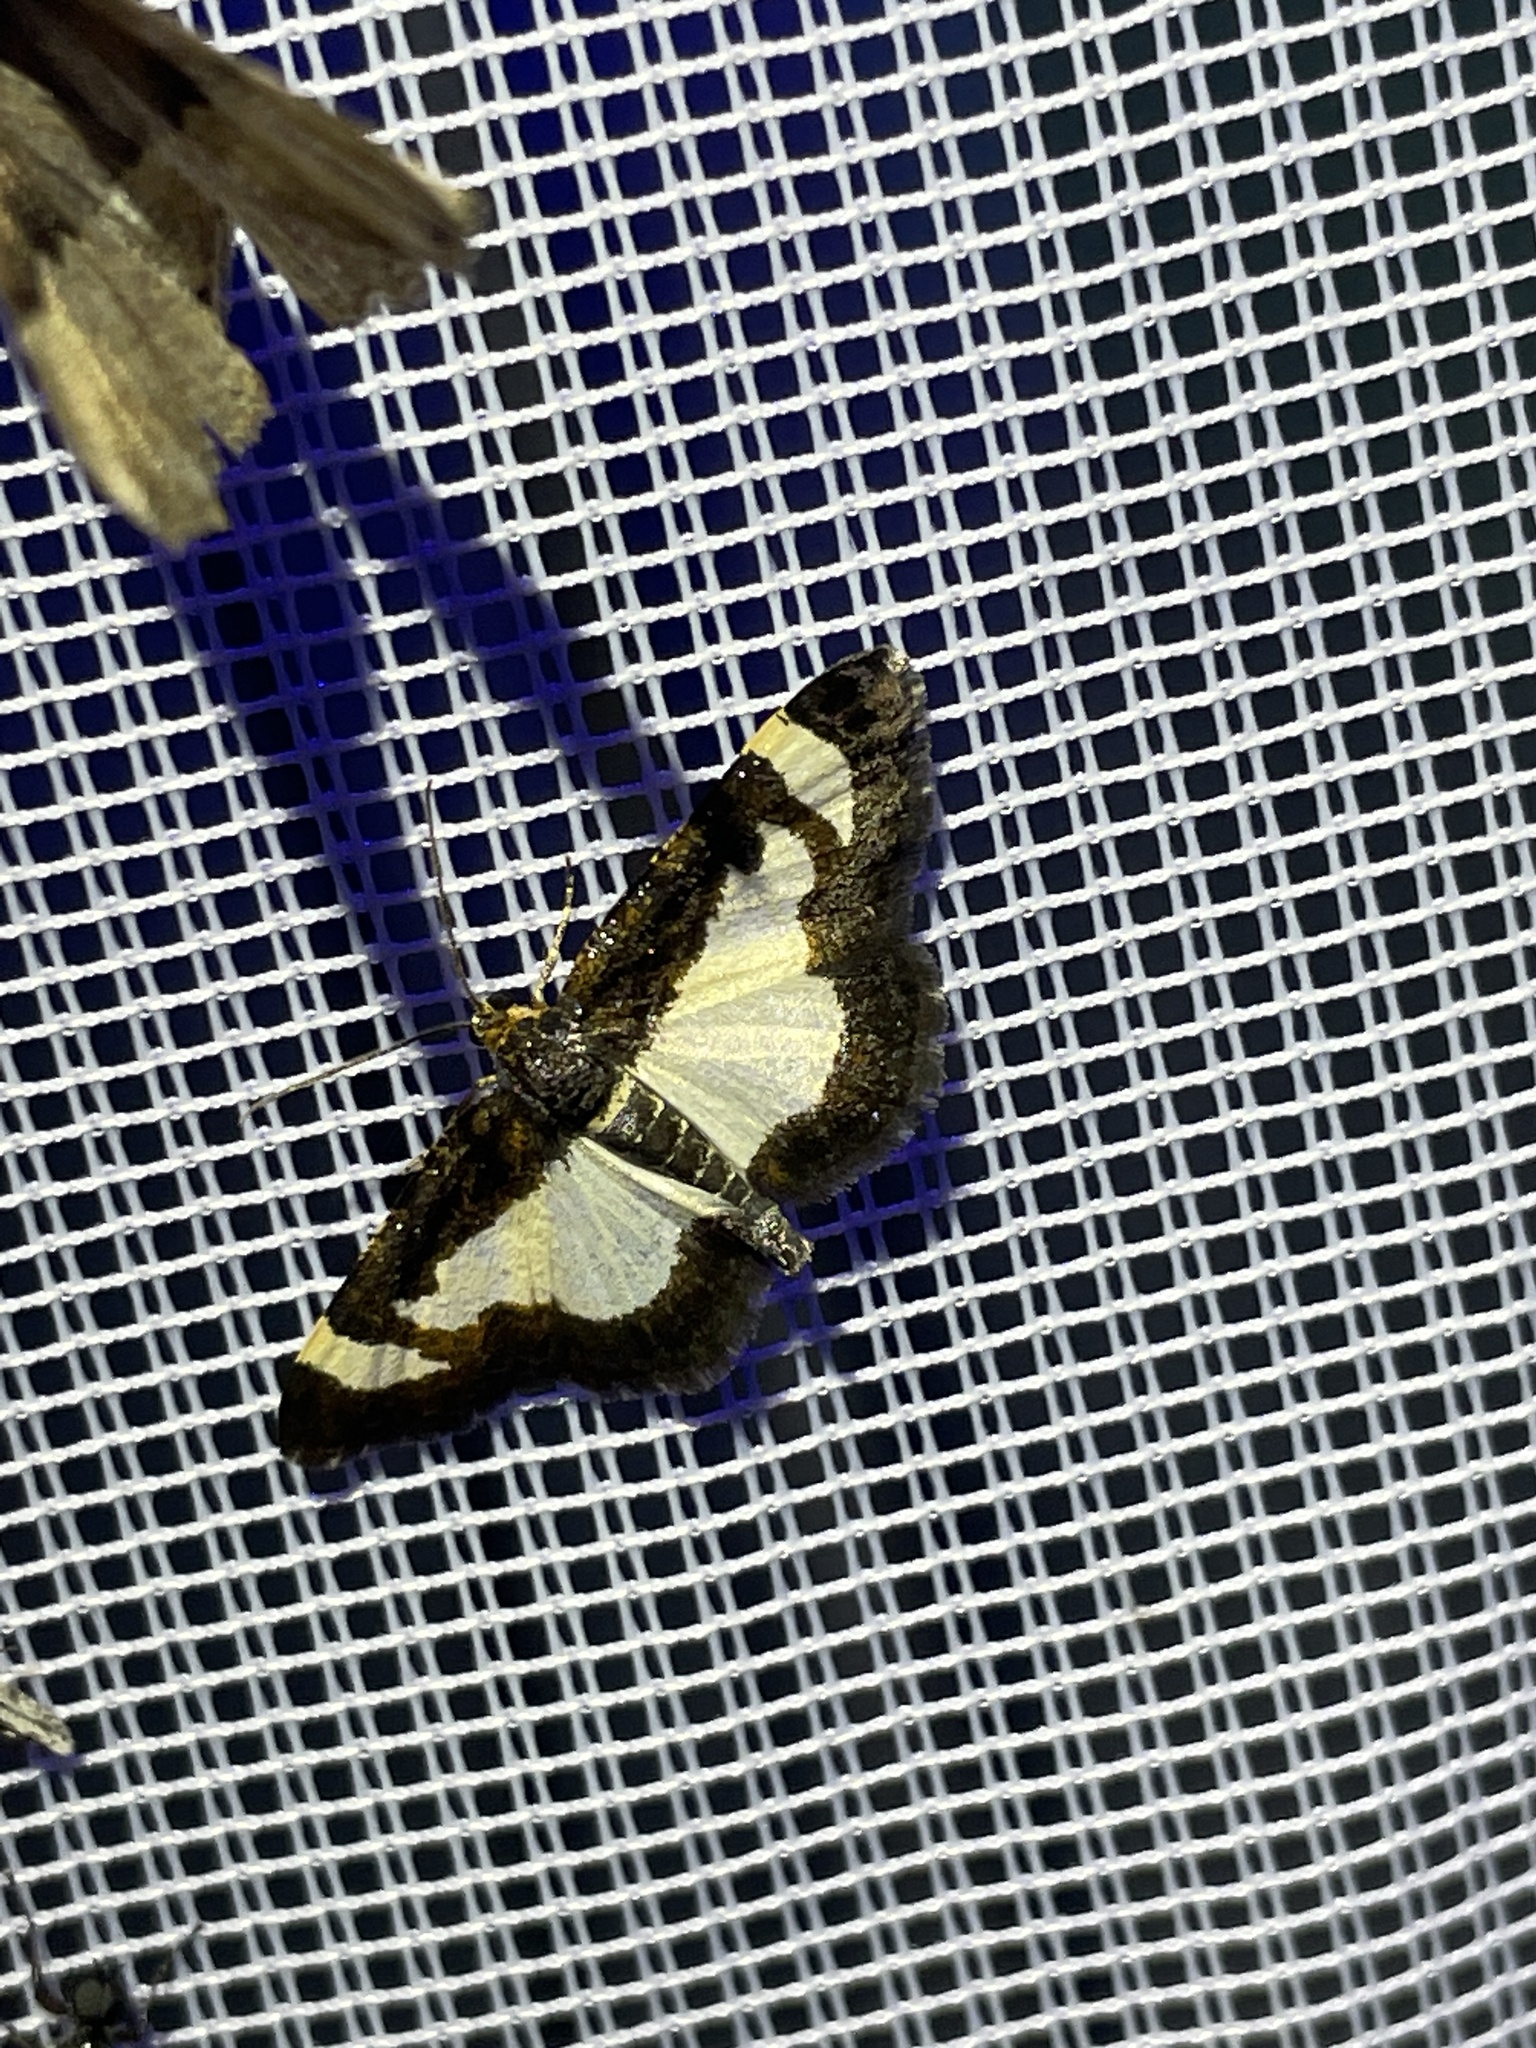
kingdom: Animalia
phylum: Arthropoda
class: Insecta
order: Lepidoptera
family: Geometridae
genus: Heliomata
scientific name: Heliomata cycladata
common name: Common spring moth
